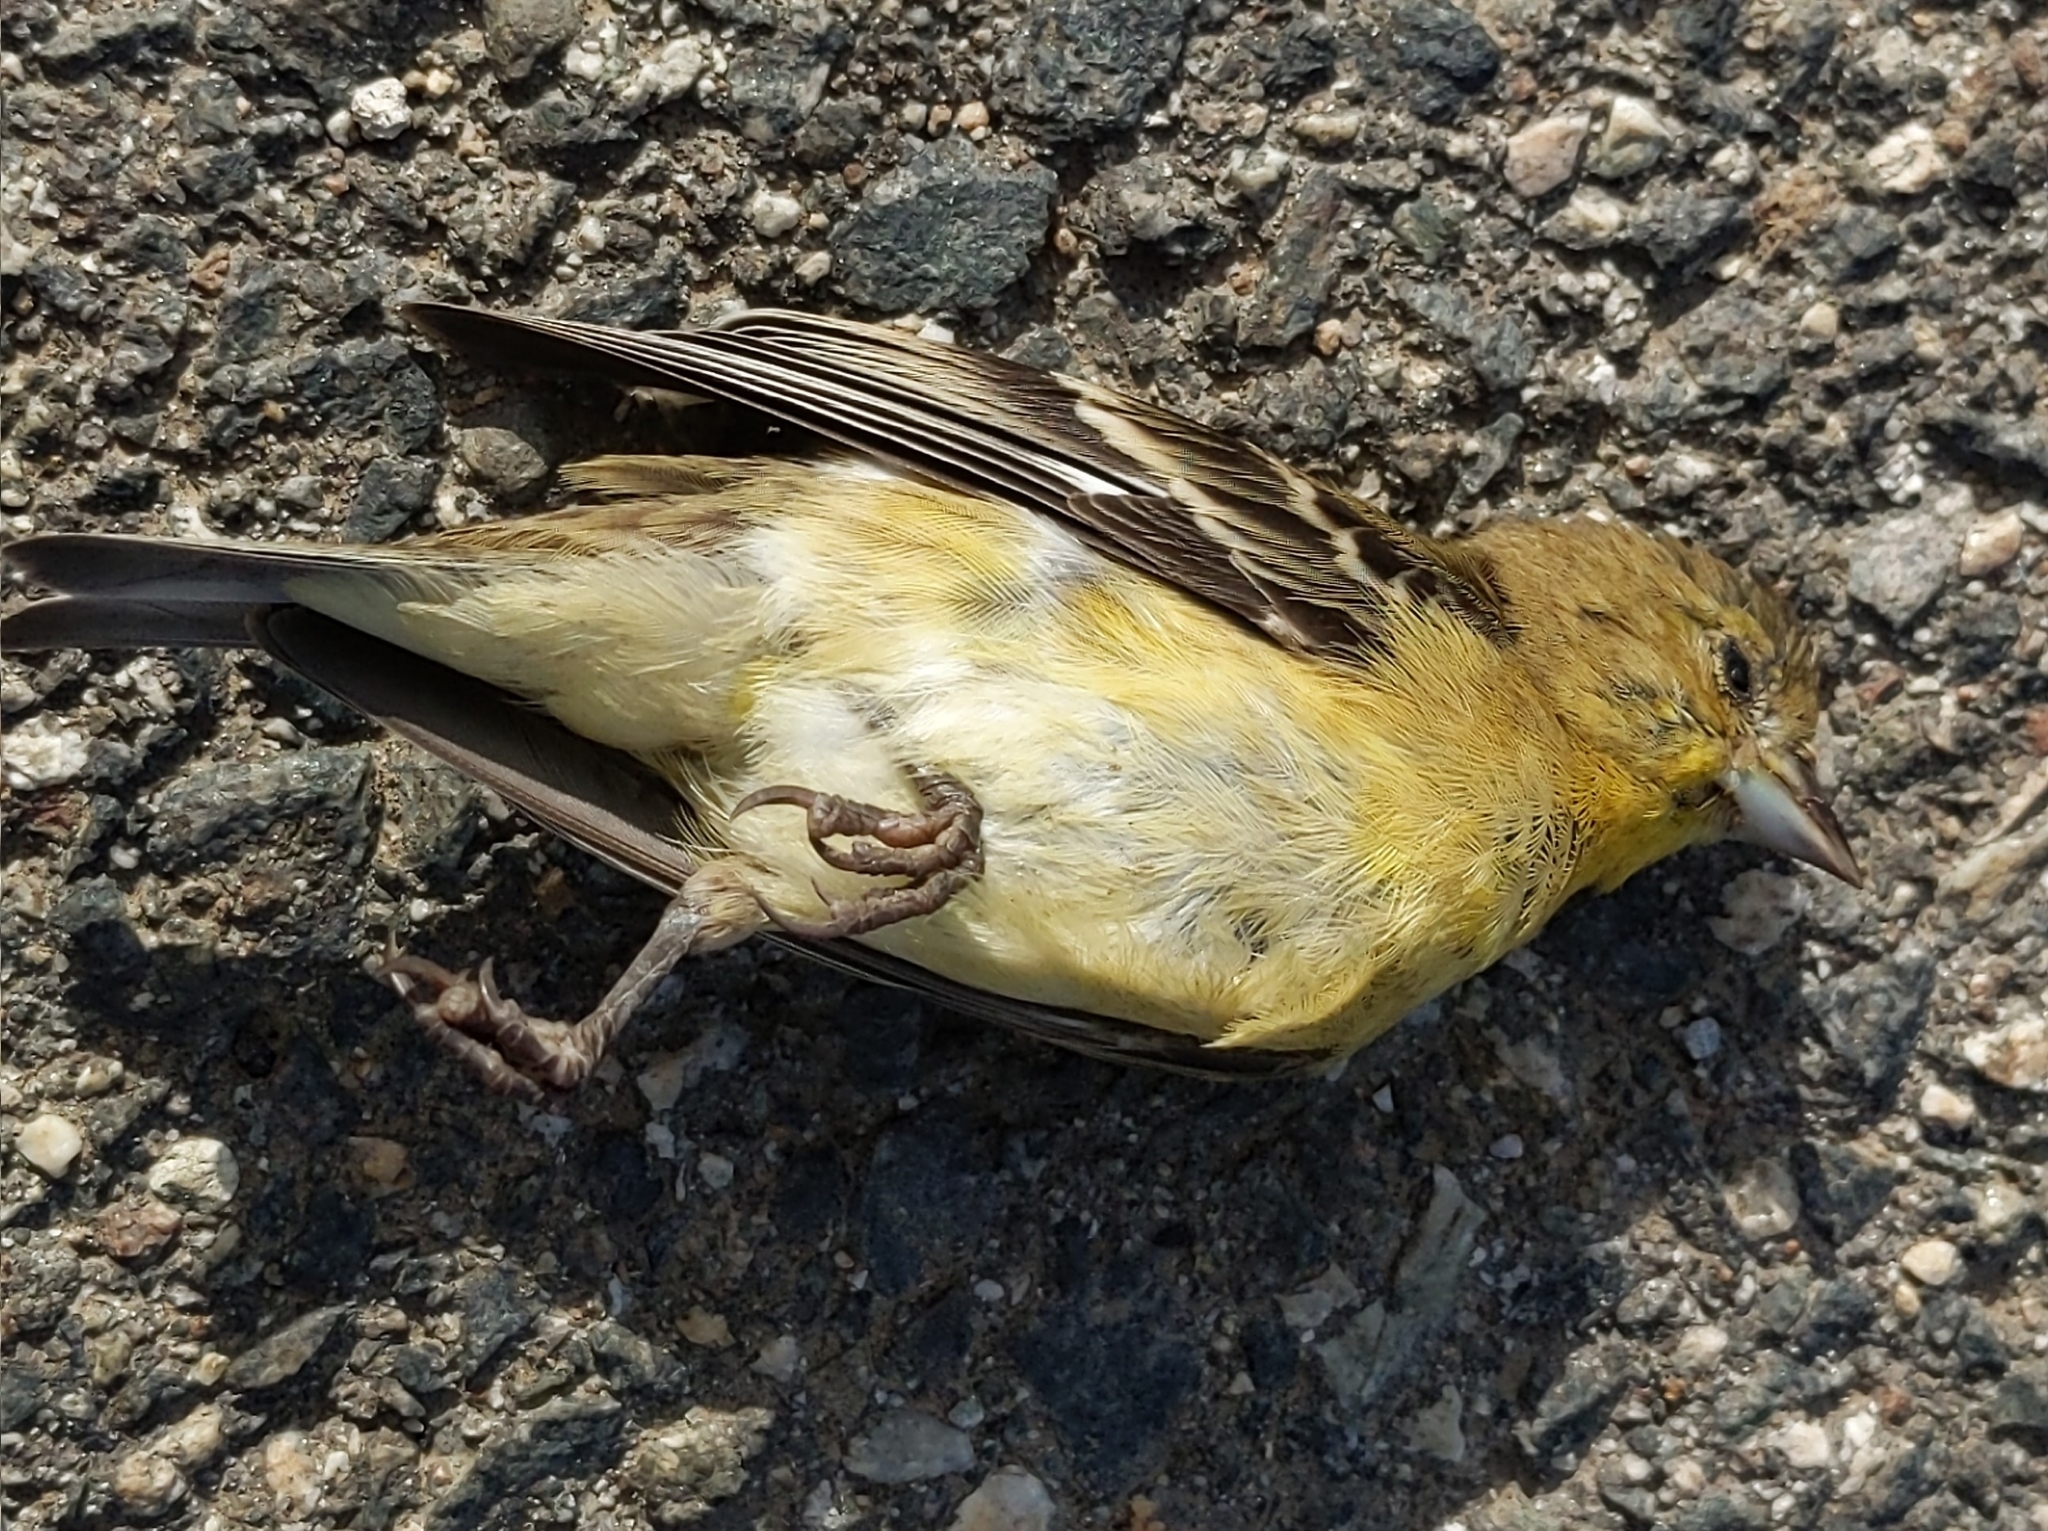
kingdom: Animalia
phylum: Chordata
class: Aves
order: Passeriformes
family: Fringillidae
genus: Spinus
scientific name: Spinus psaltria
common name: Lesser goldfinch
